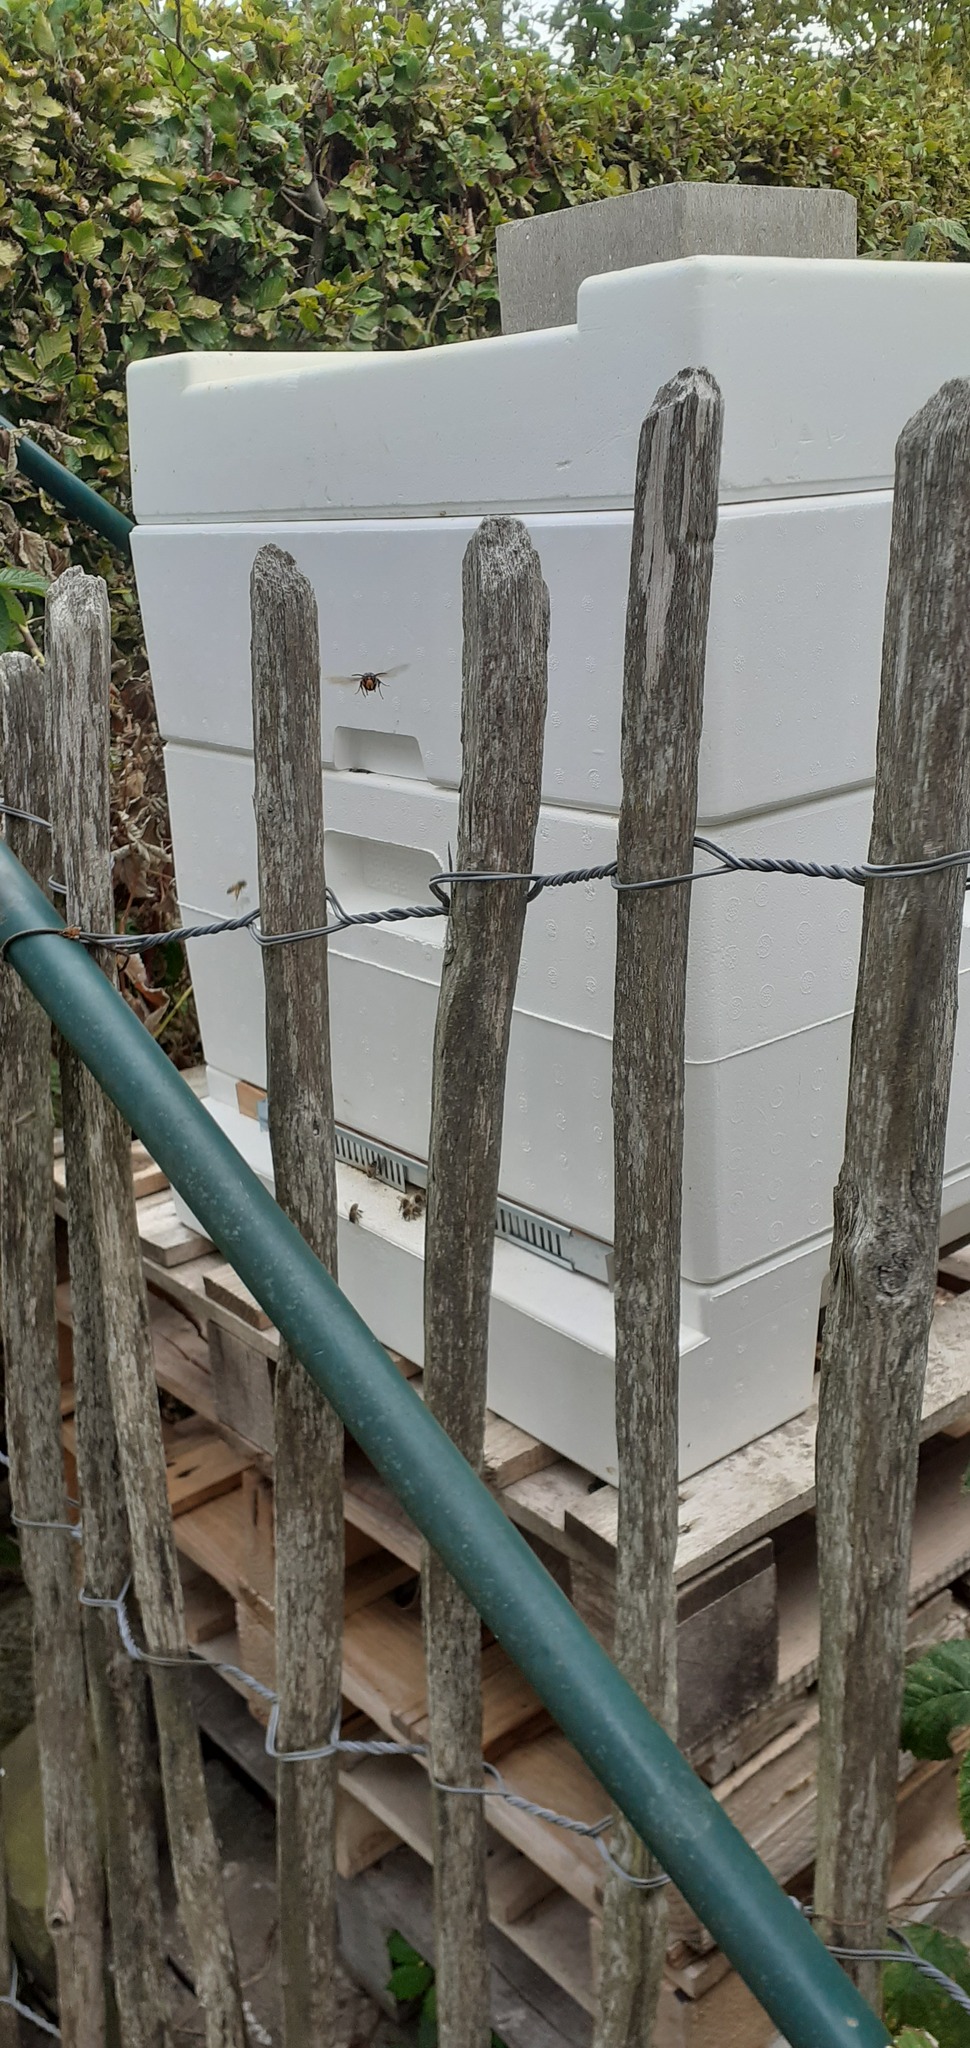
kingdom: Animalia
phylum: Arthropoda
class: Insecta
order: Hymenoptera
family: Vespidae
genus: Vespa
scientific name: Vespa velutina
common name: Asian hornet
